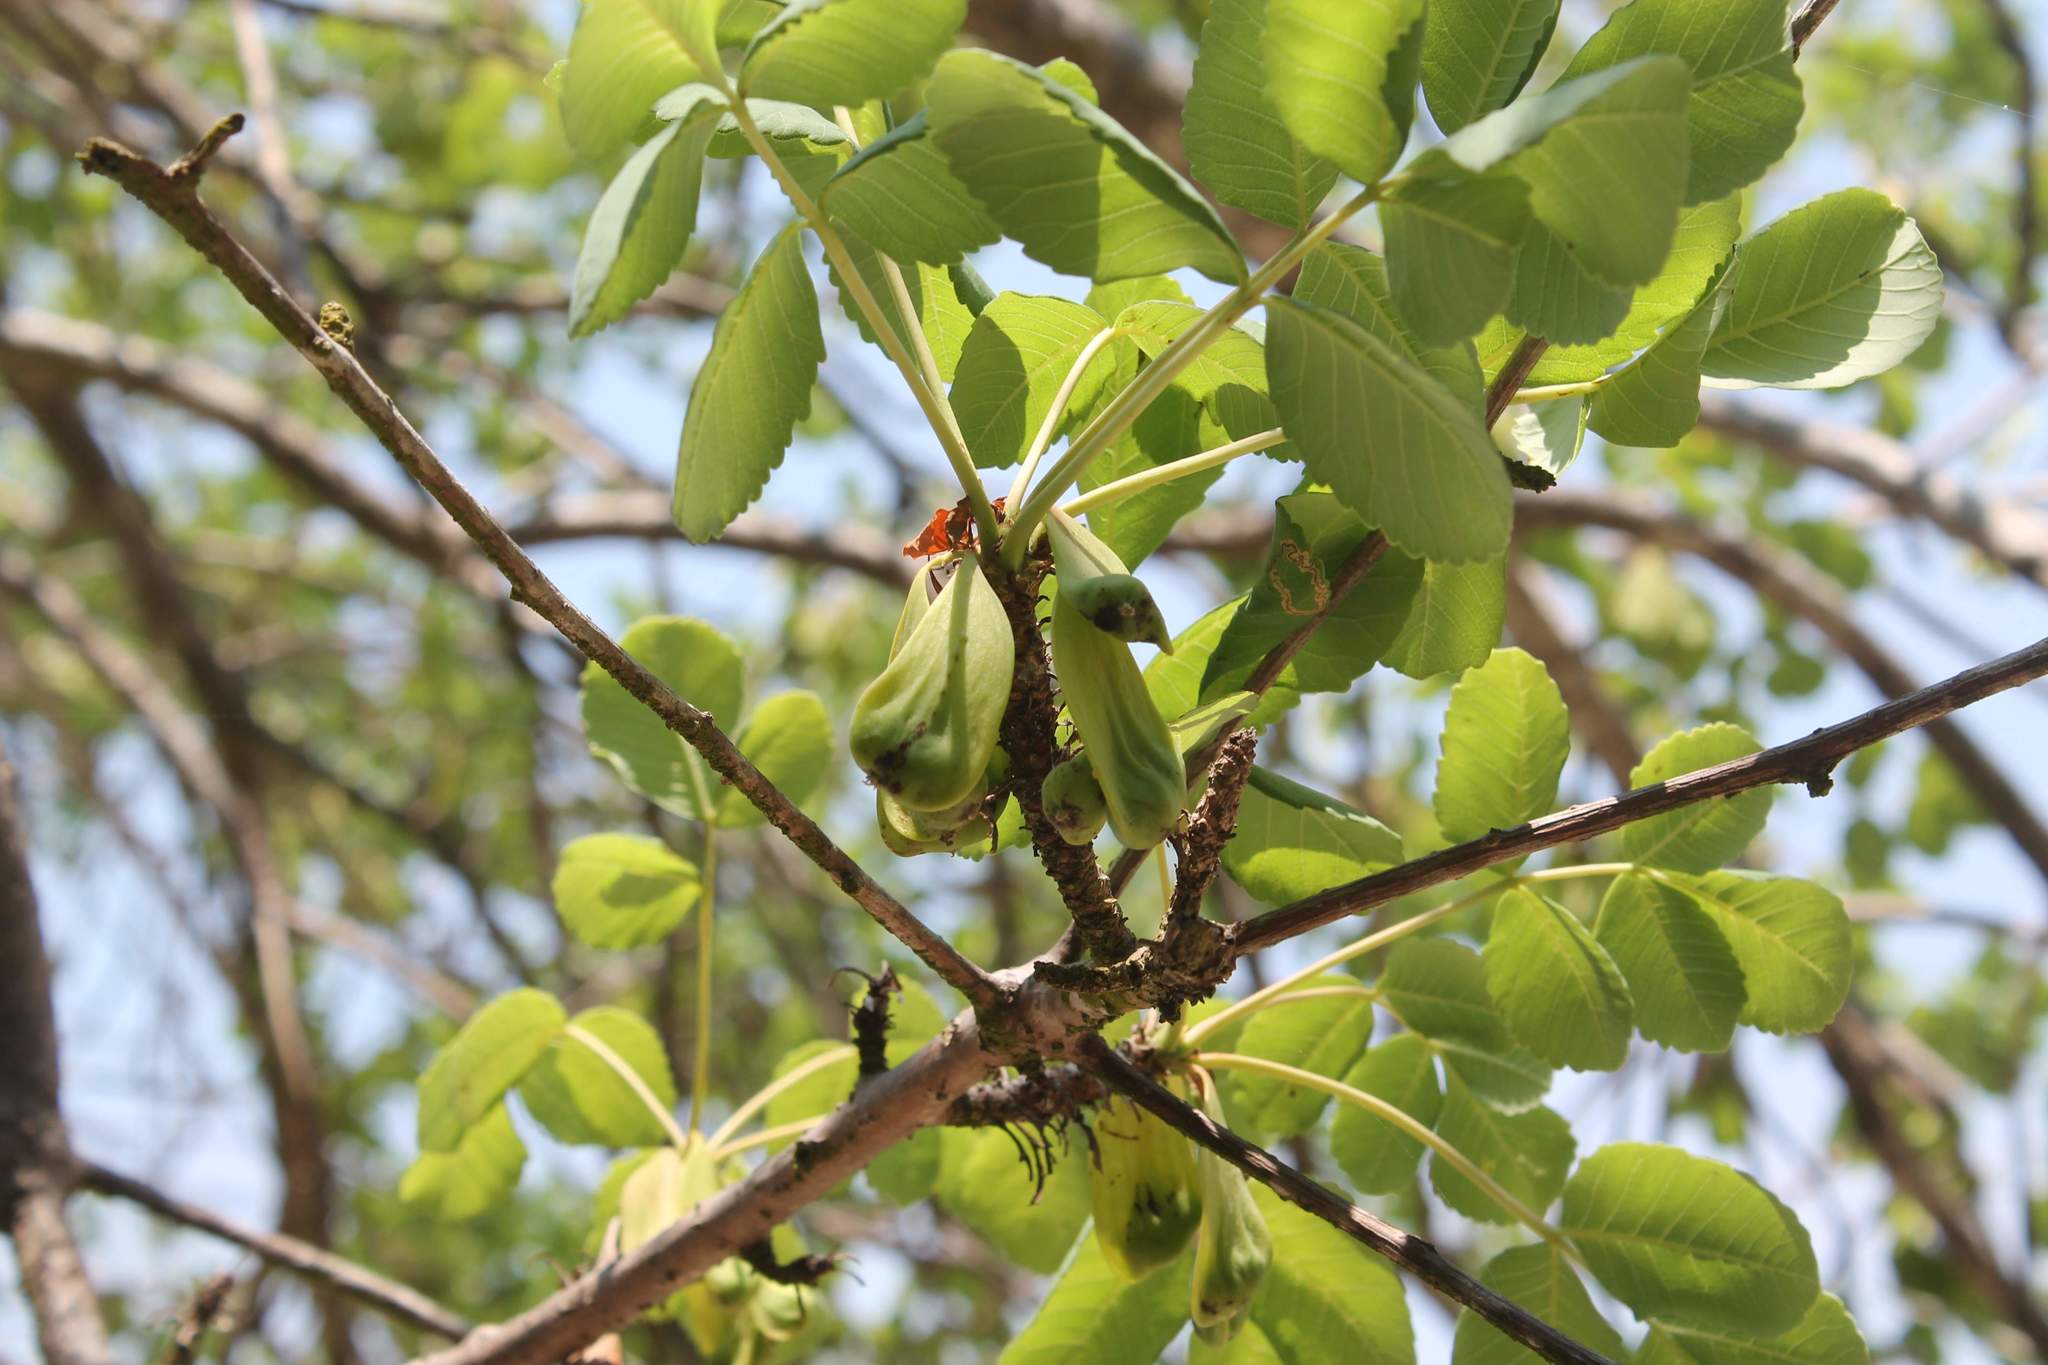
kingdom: Plantae
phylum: Tracheophyta
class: Magnoliopsida
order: Sapindales
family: Anacardiaceae
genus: Amphipterygium
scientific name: Amphipterygium adstringens
